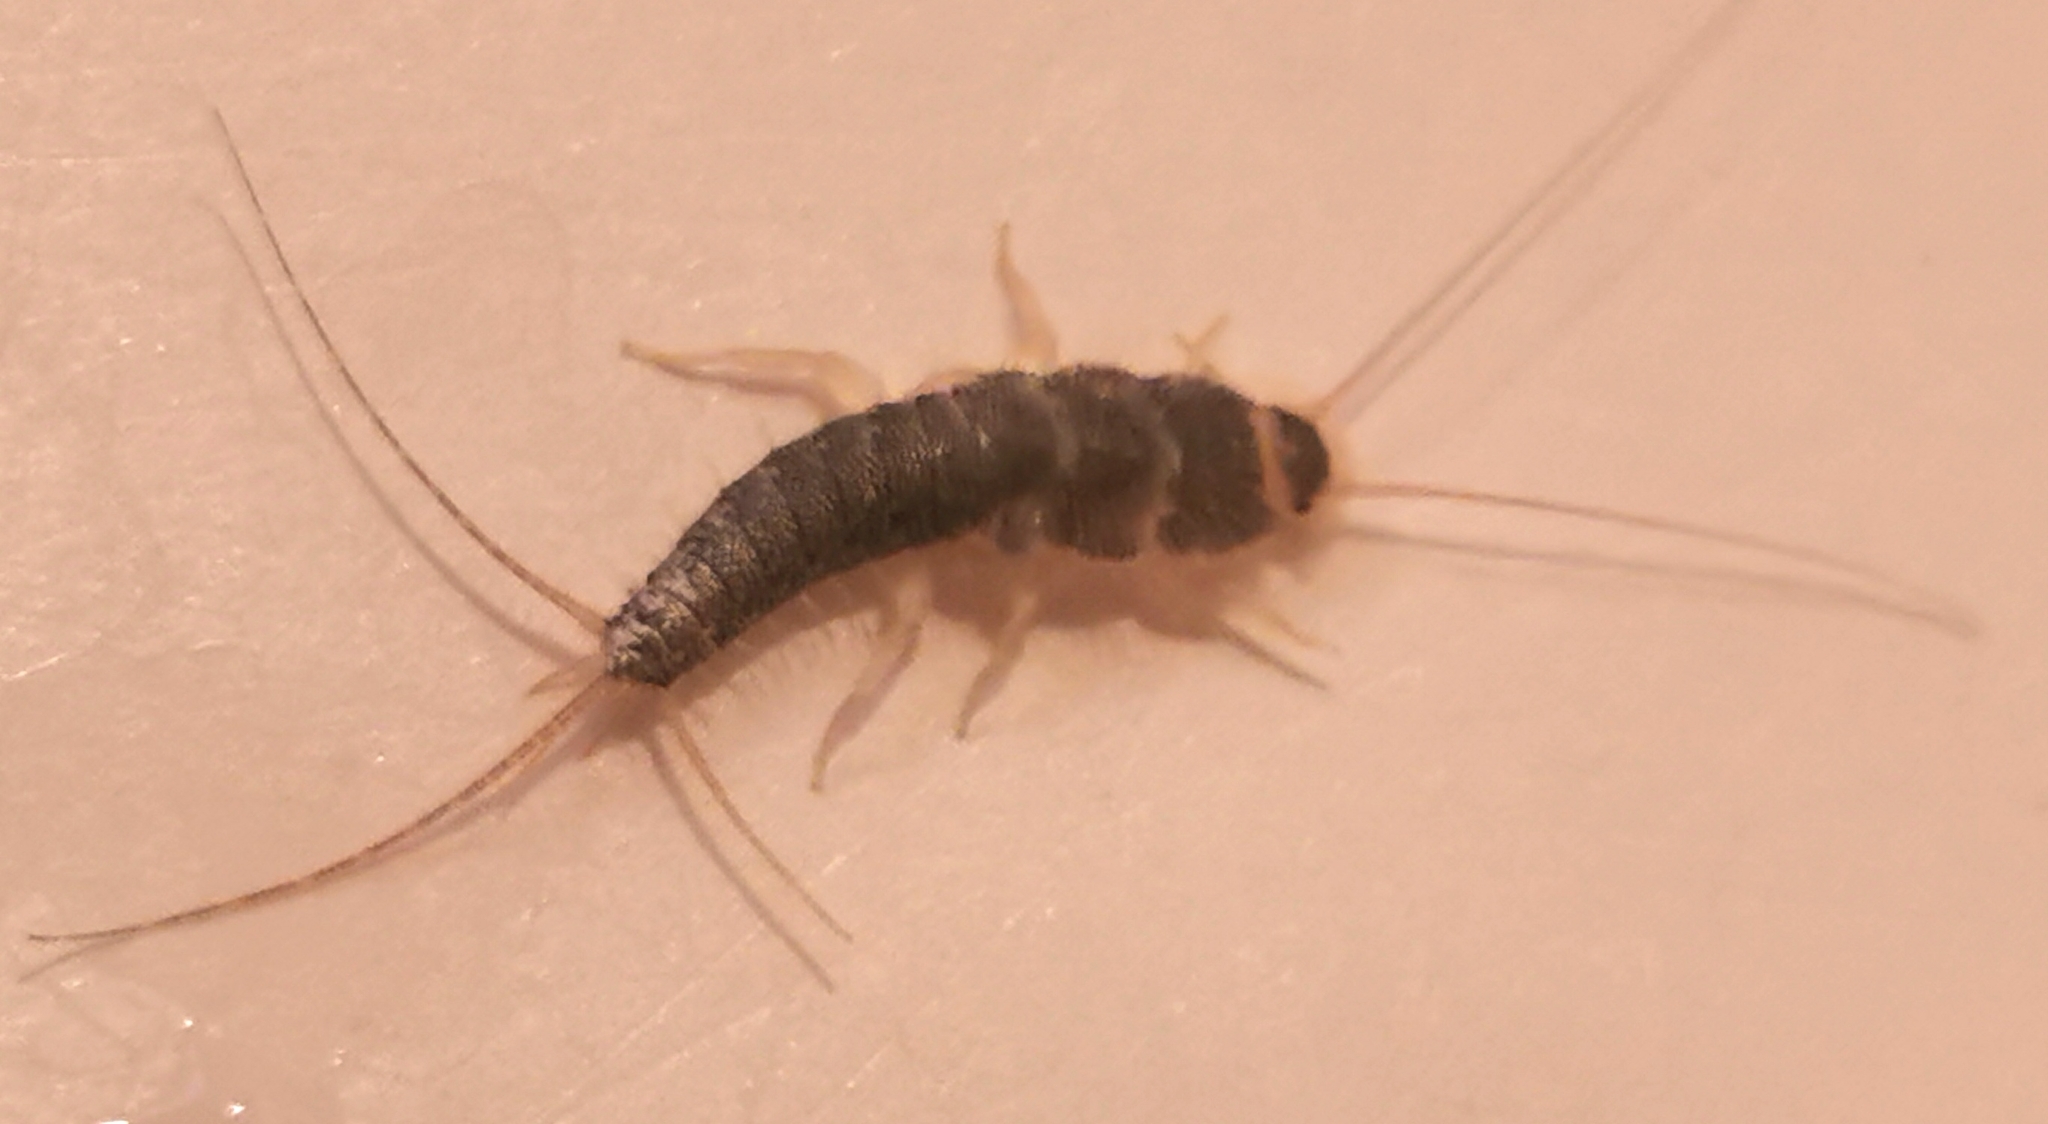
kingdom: Animalia
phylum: Arthropoda
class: Insecta
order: Zygentoma
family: Lepismatidae
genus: Ctenolepisma
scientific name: Ctenolepisma longicaudatum
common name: Silverfish
